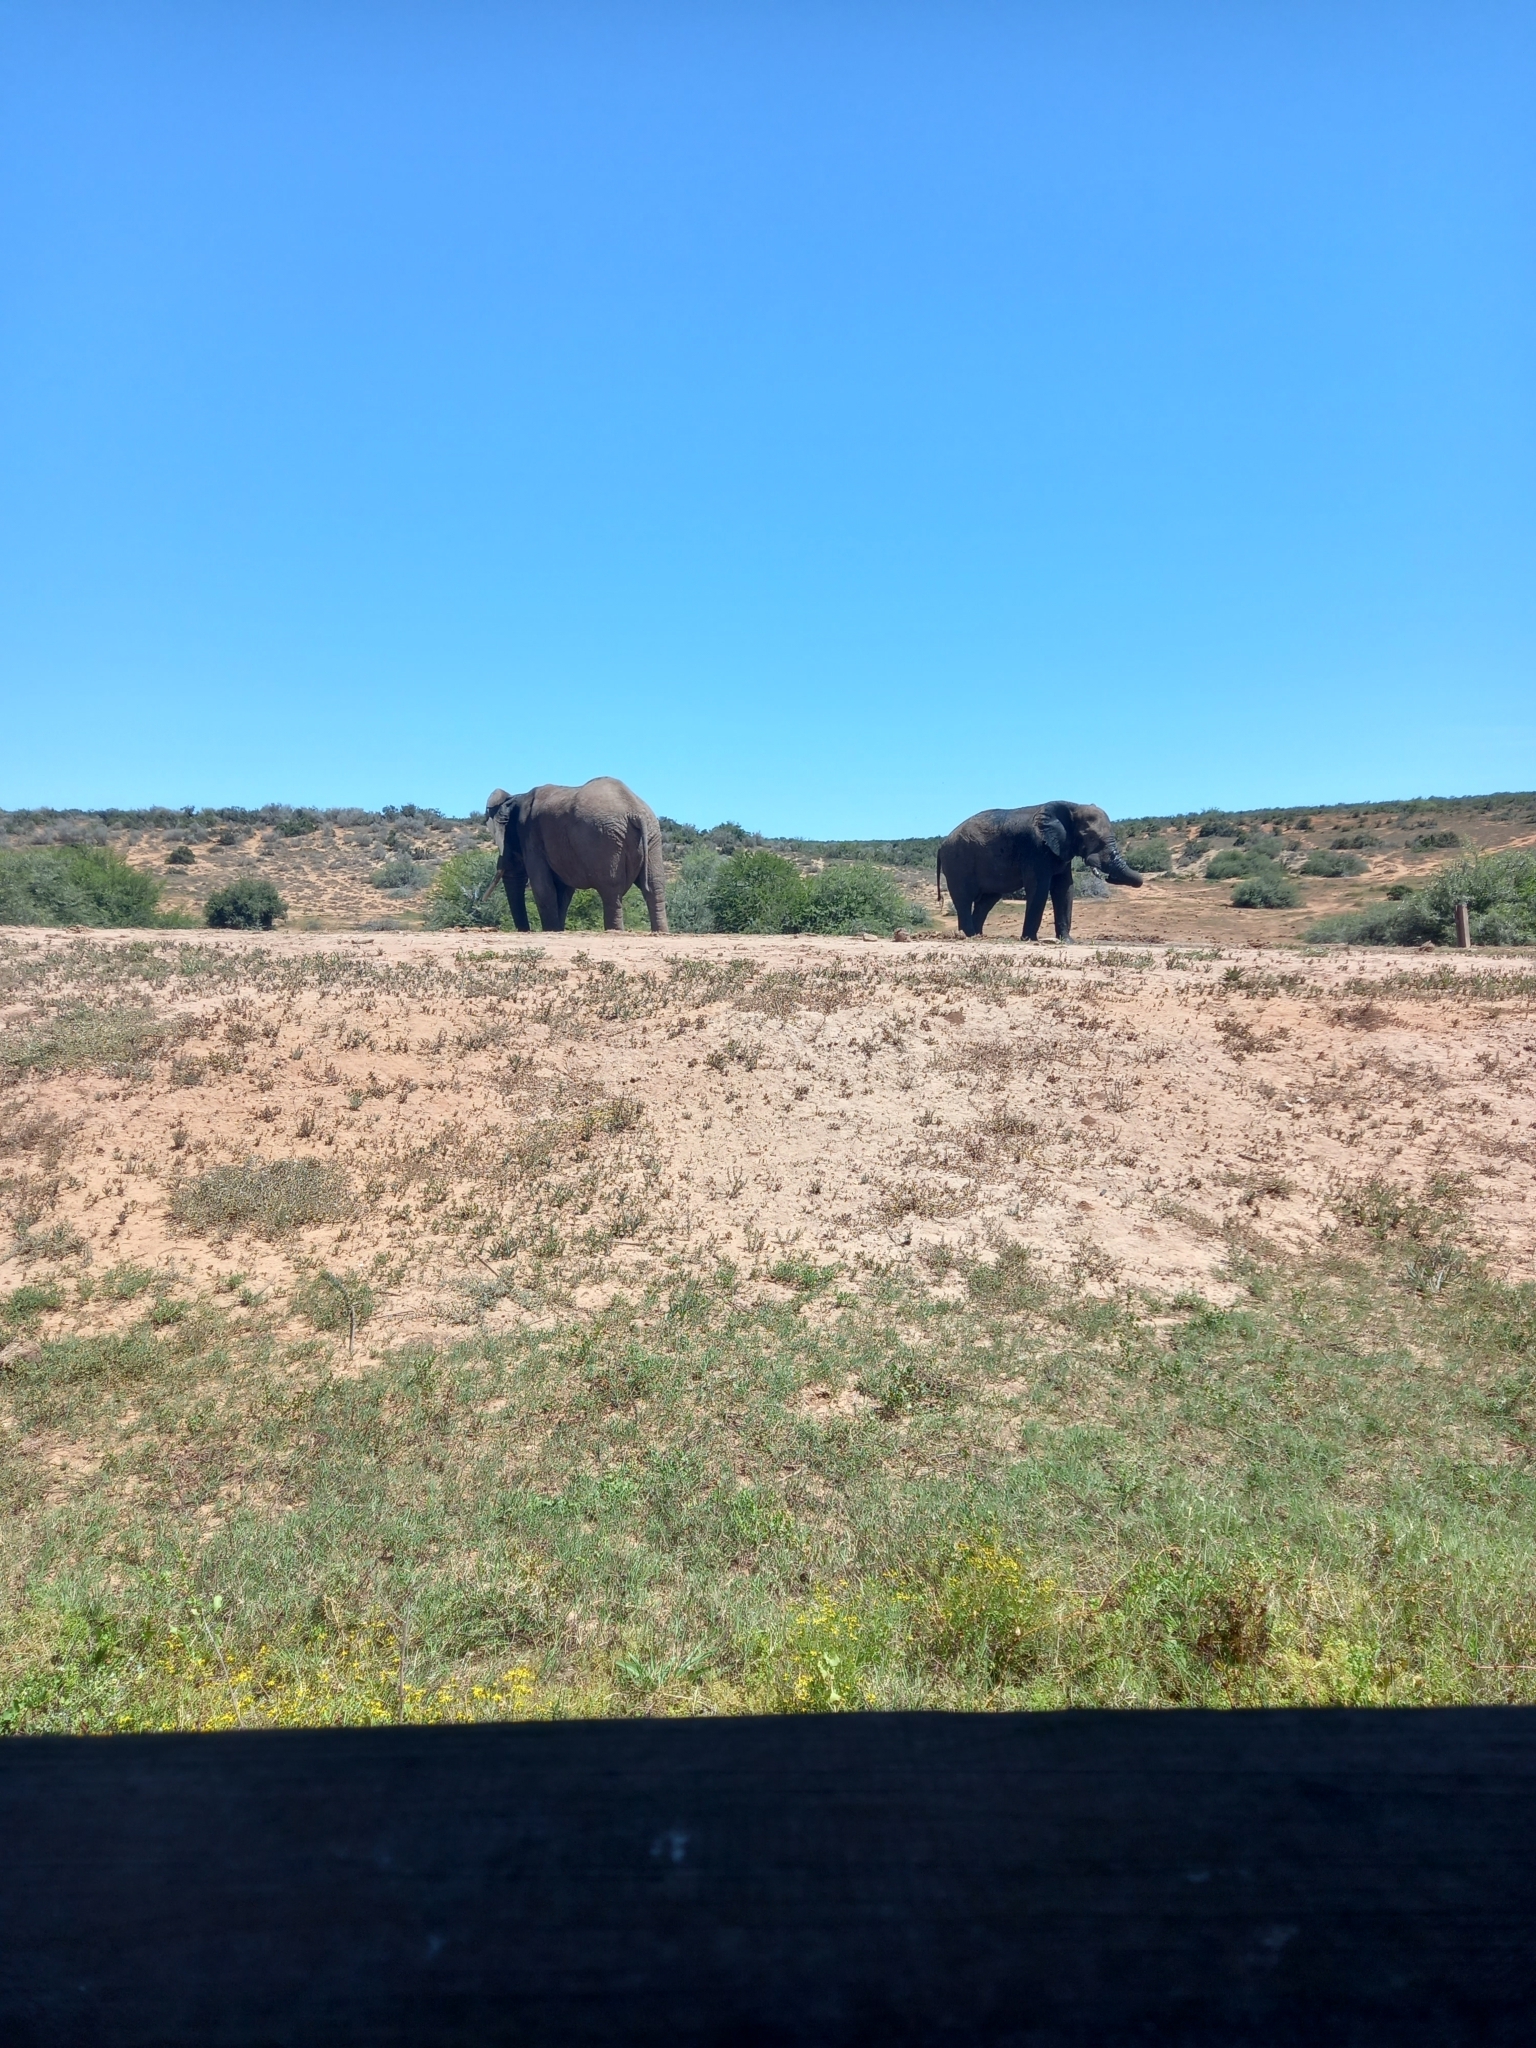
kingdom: Animalia
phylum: Chordata
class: Mammalia
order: Proboscidea
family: Elephantidae
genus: Loxodonta
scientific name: Loxodonta africana
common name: African elephant
